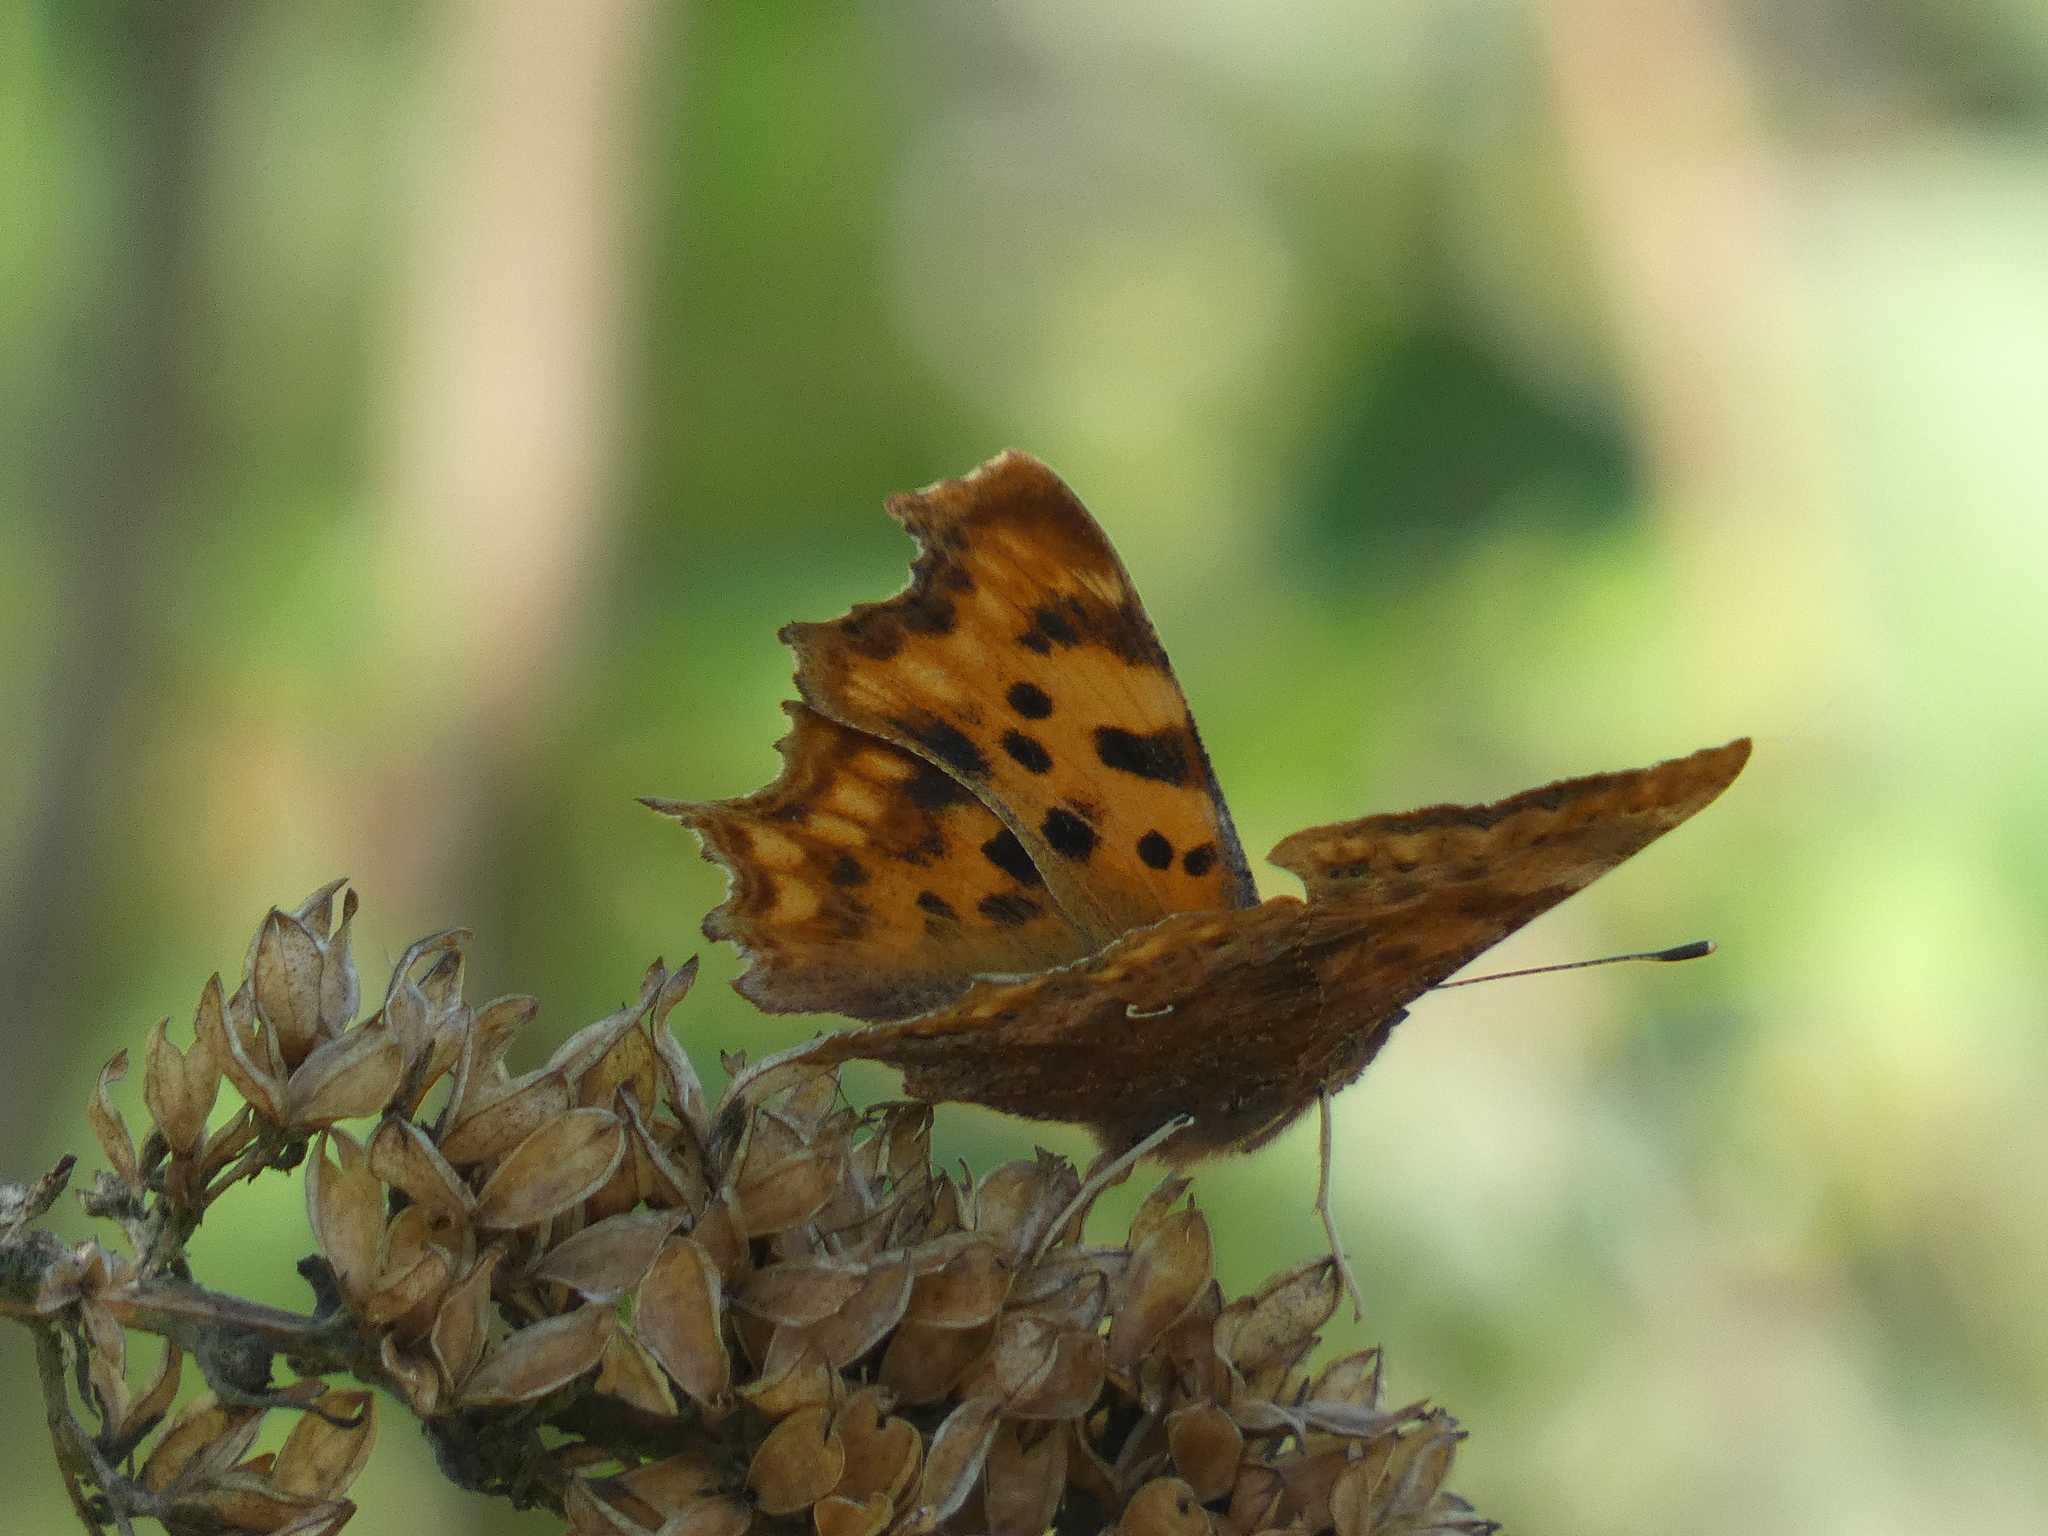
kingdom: Animalia
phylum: Arthropoda
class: Insecta
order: Lepidoptera
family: Nymphalidae
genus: Polygonia
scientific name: Polygonia c-album
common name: Comma
